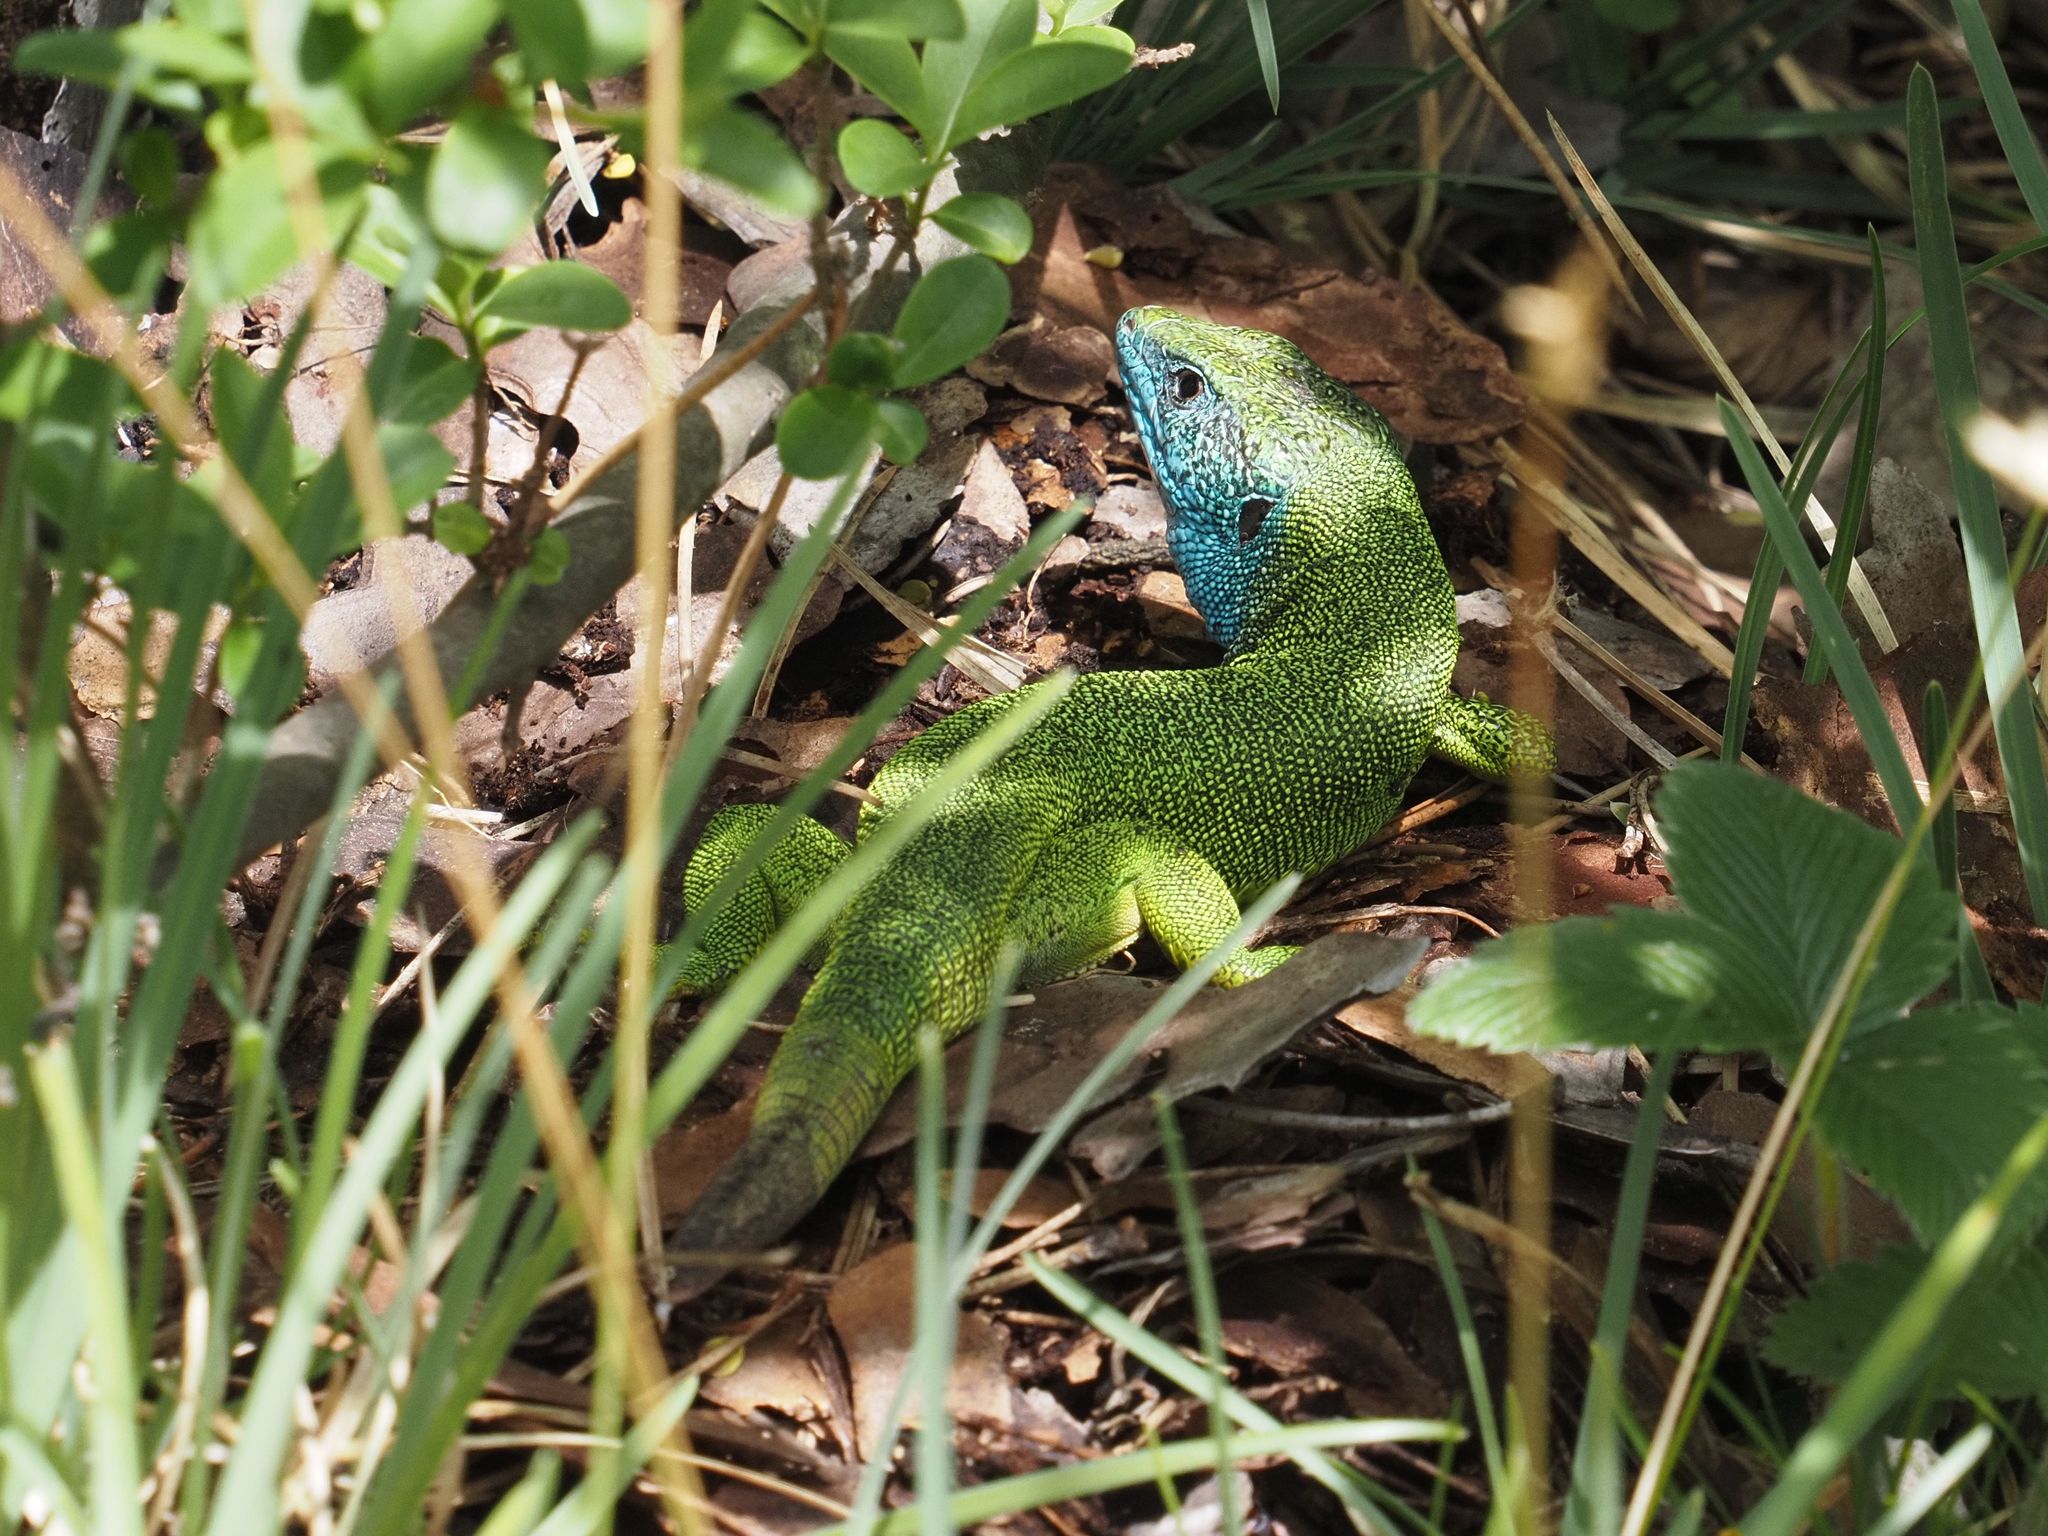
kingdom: Animalia
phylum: Chordata
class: Squamata
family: Lacertidae
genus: Lacerta
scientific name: Lacerta viridis
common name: European green lizard
